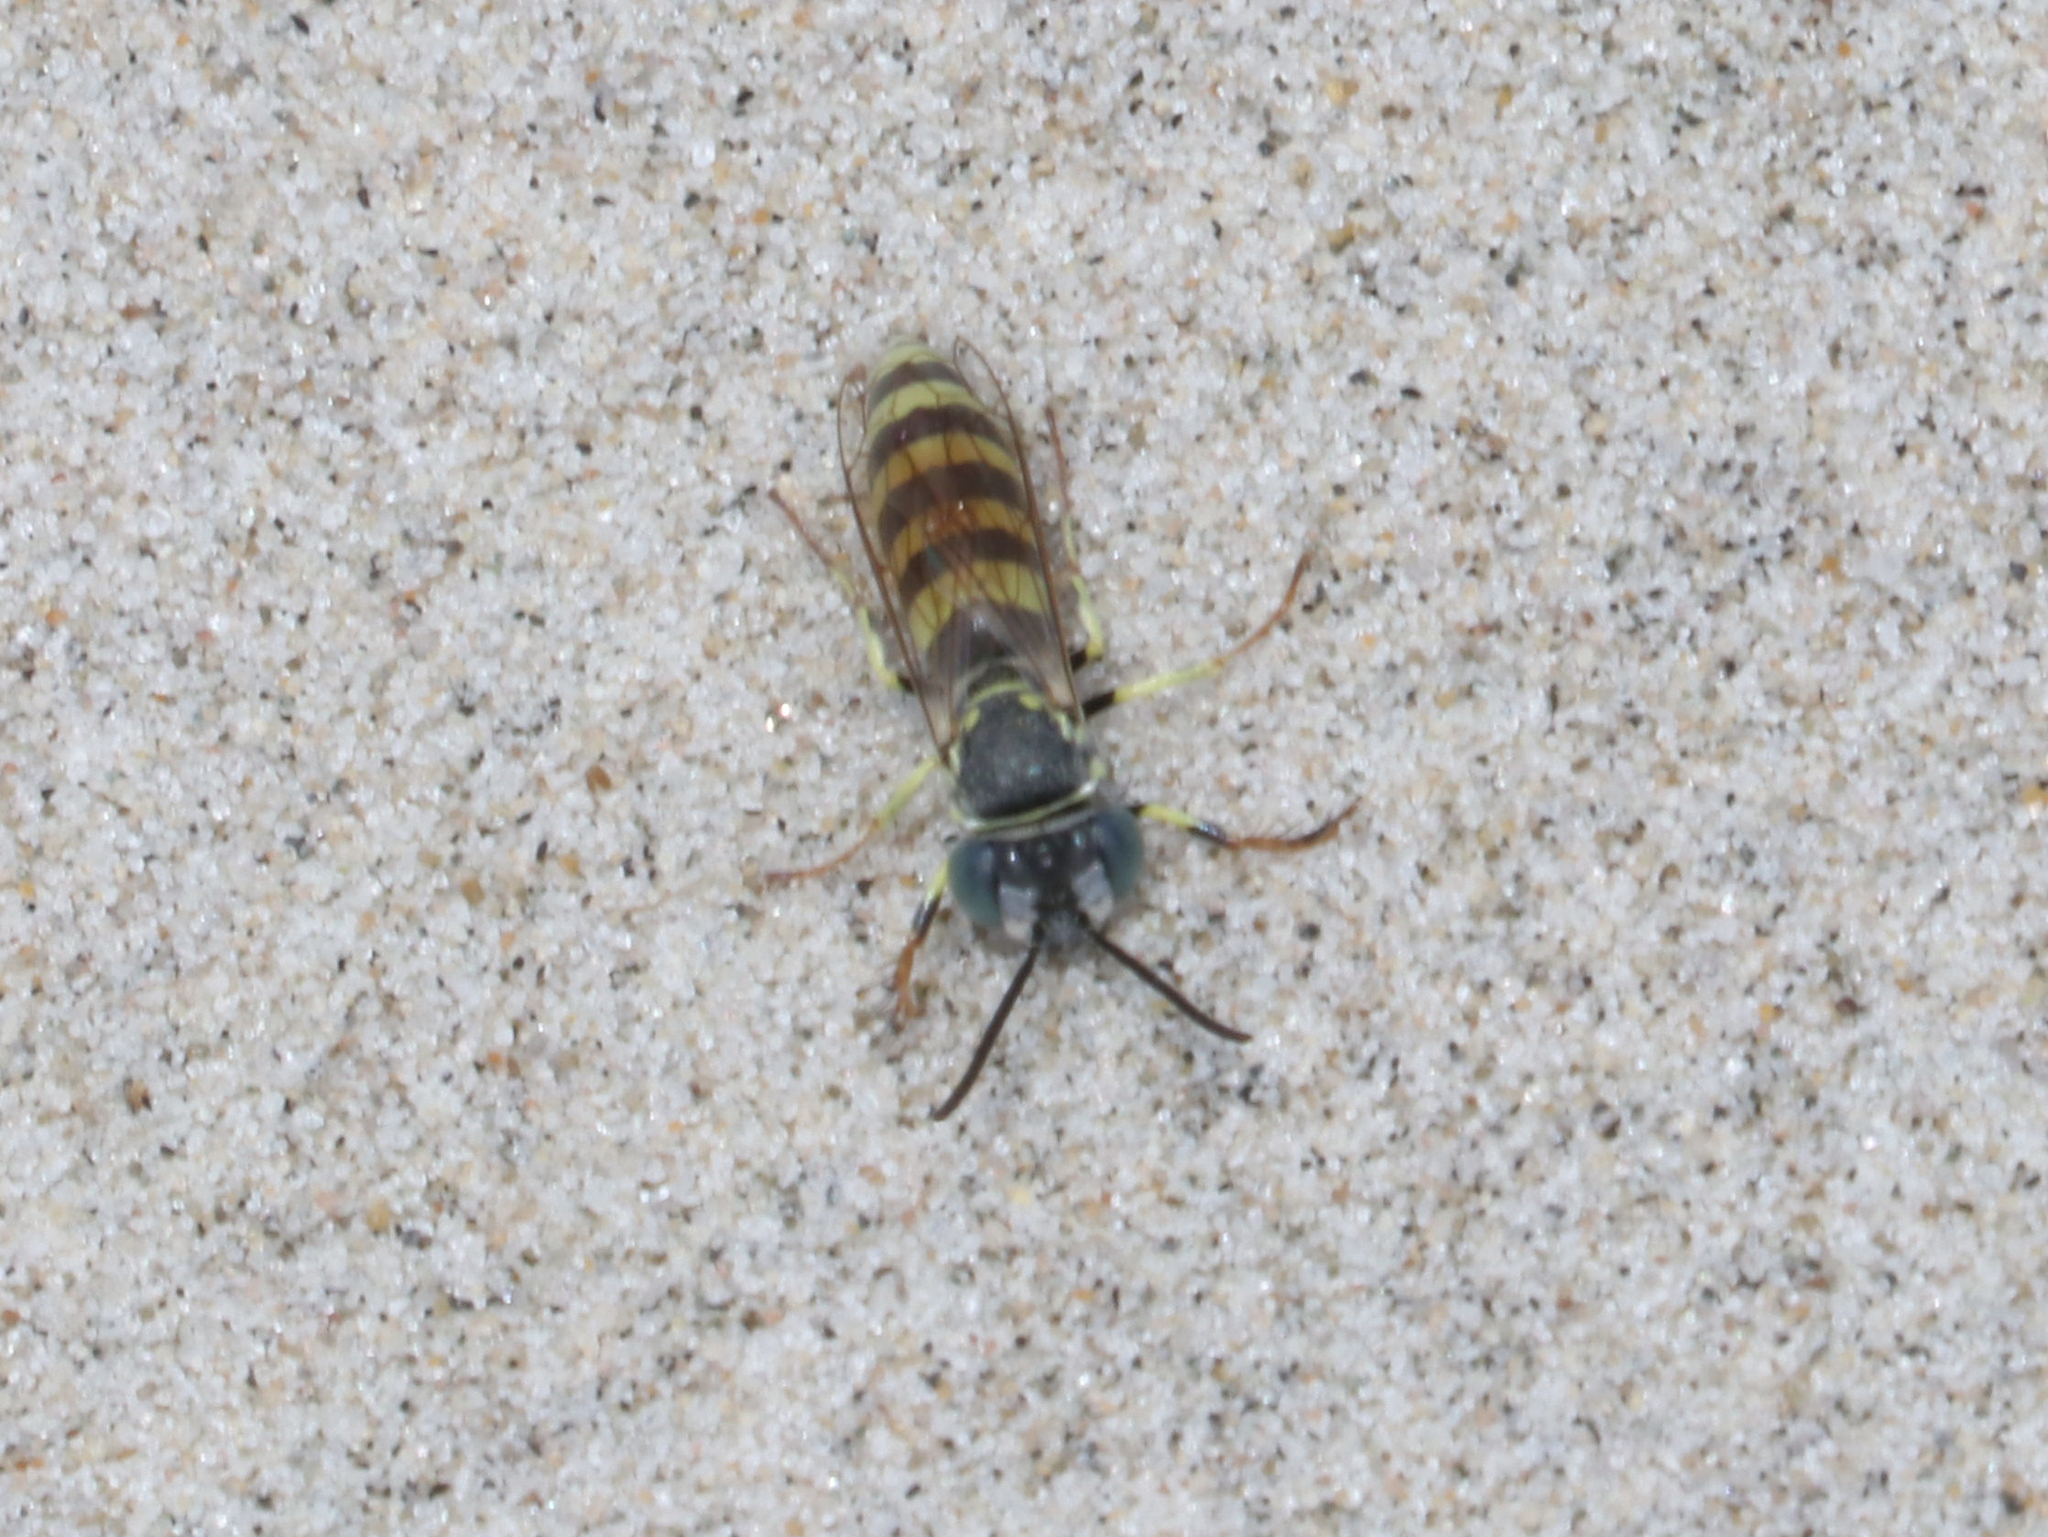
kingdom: Animalia
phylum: Arthropoda
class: Insecta
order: Hymenoptera
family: Crabronidae
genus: Microbembex
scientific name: Microbembex monodonta
